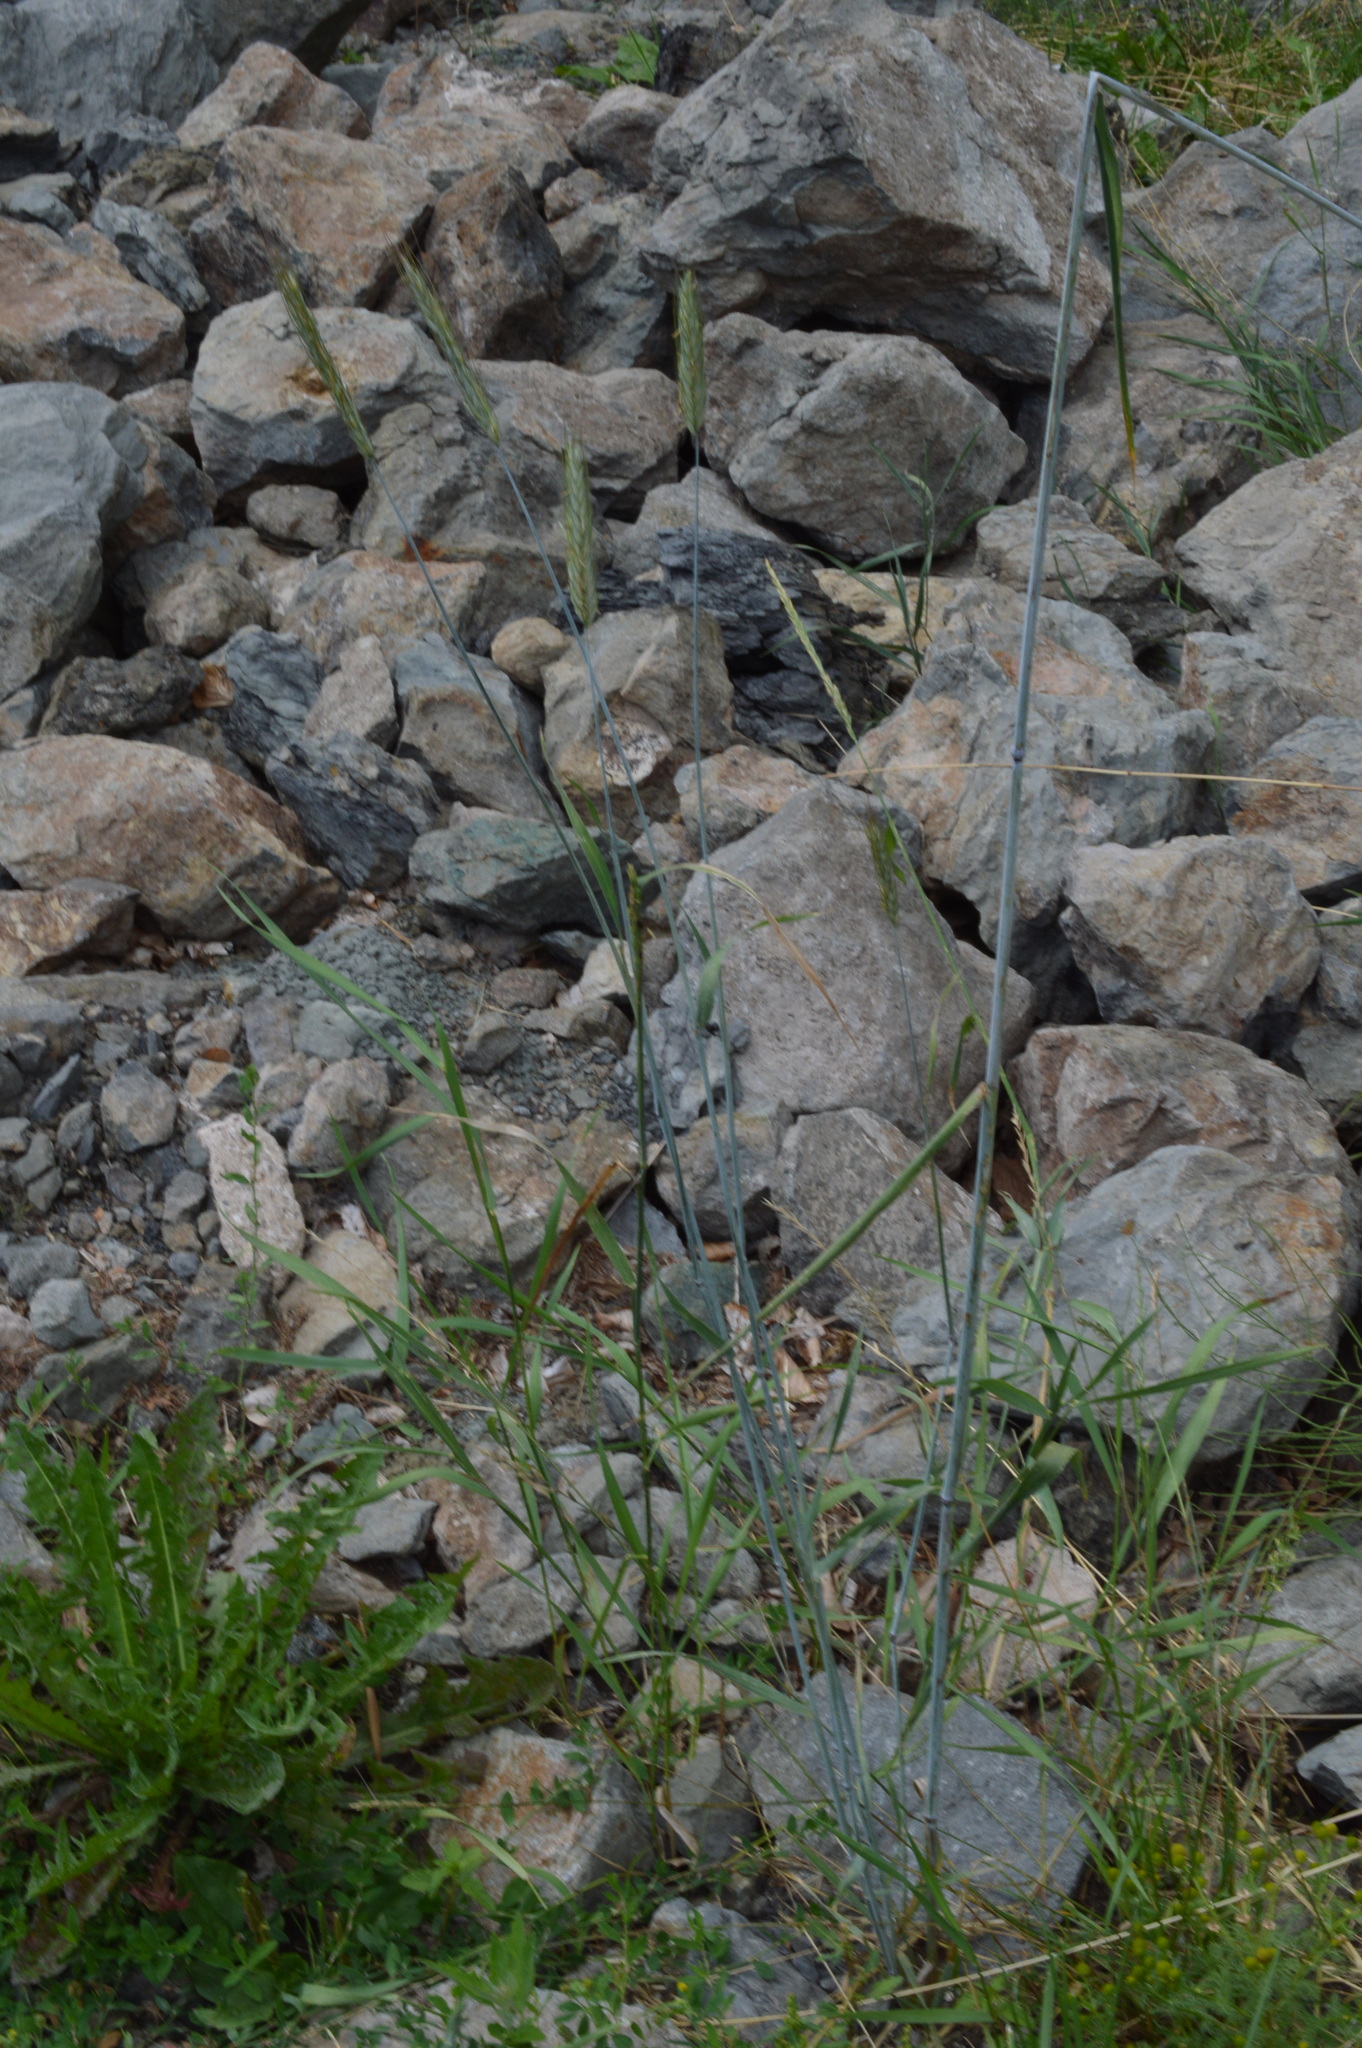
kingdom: Plantae
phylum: Tracheophyta
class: Liliopsida
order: Poales
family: Poaceae
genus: Secale
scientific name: Secale cereale
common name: Rye
